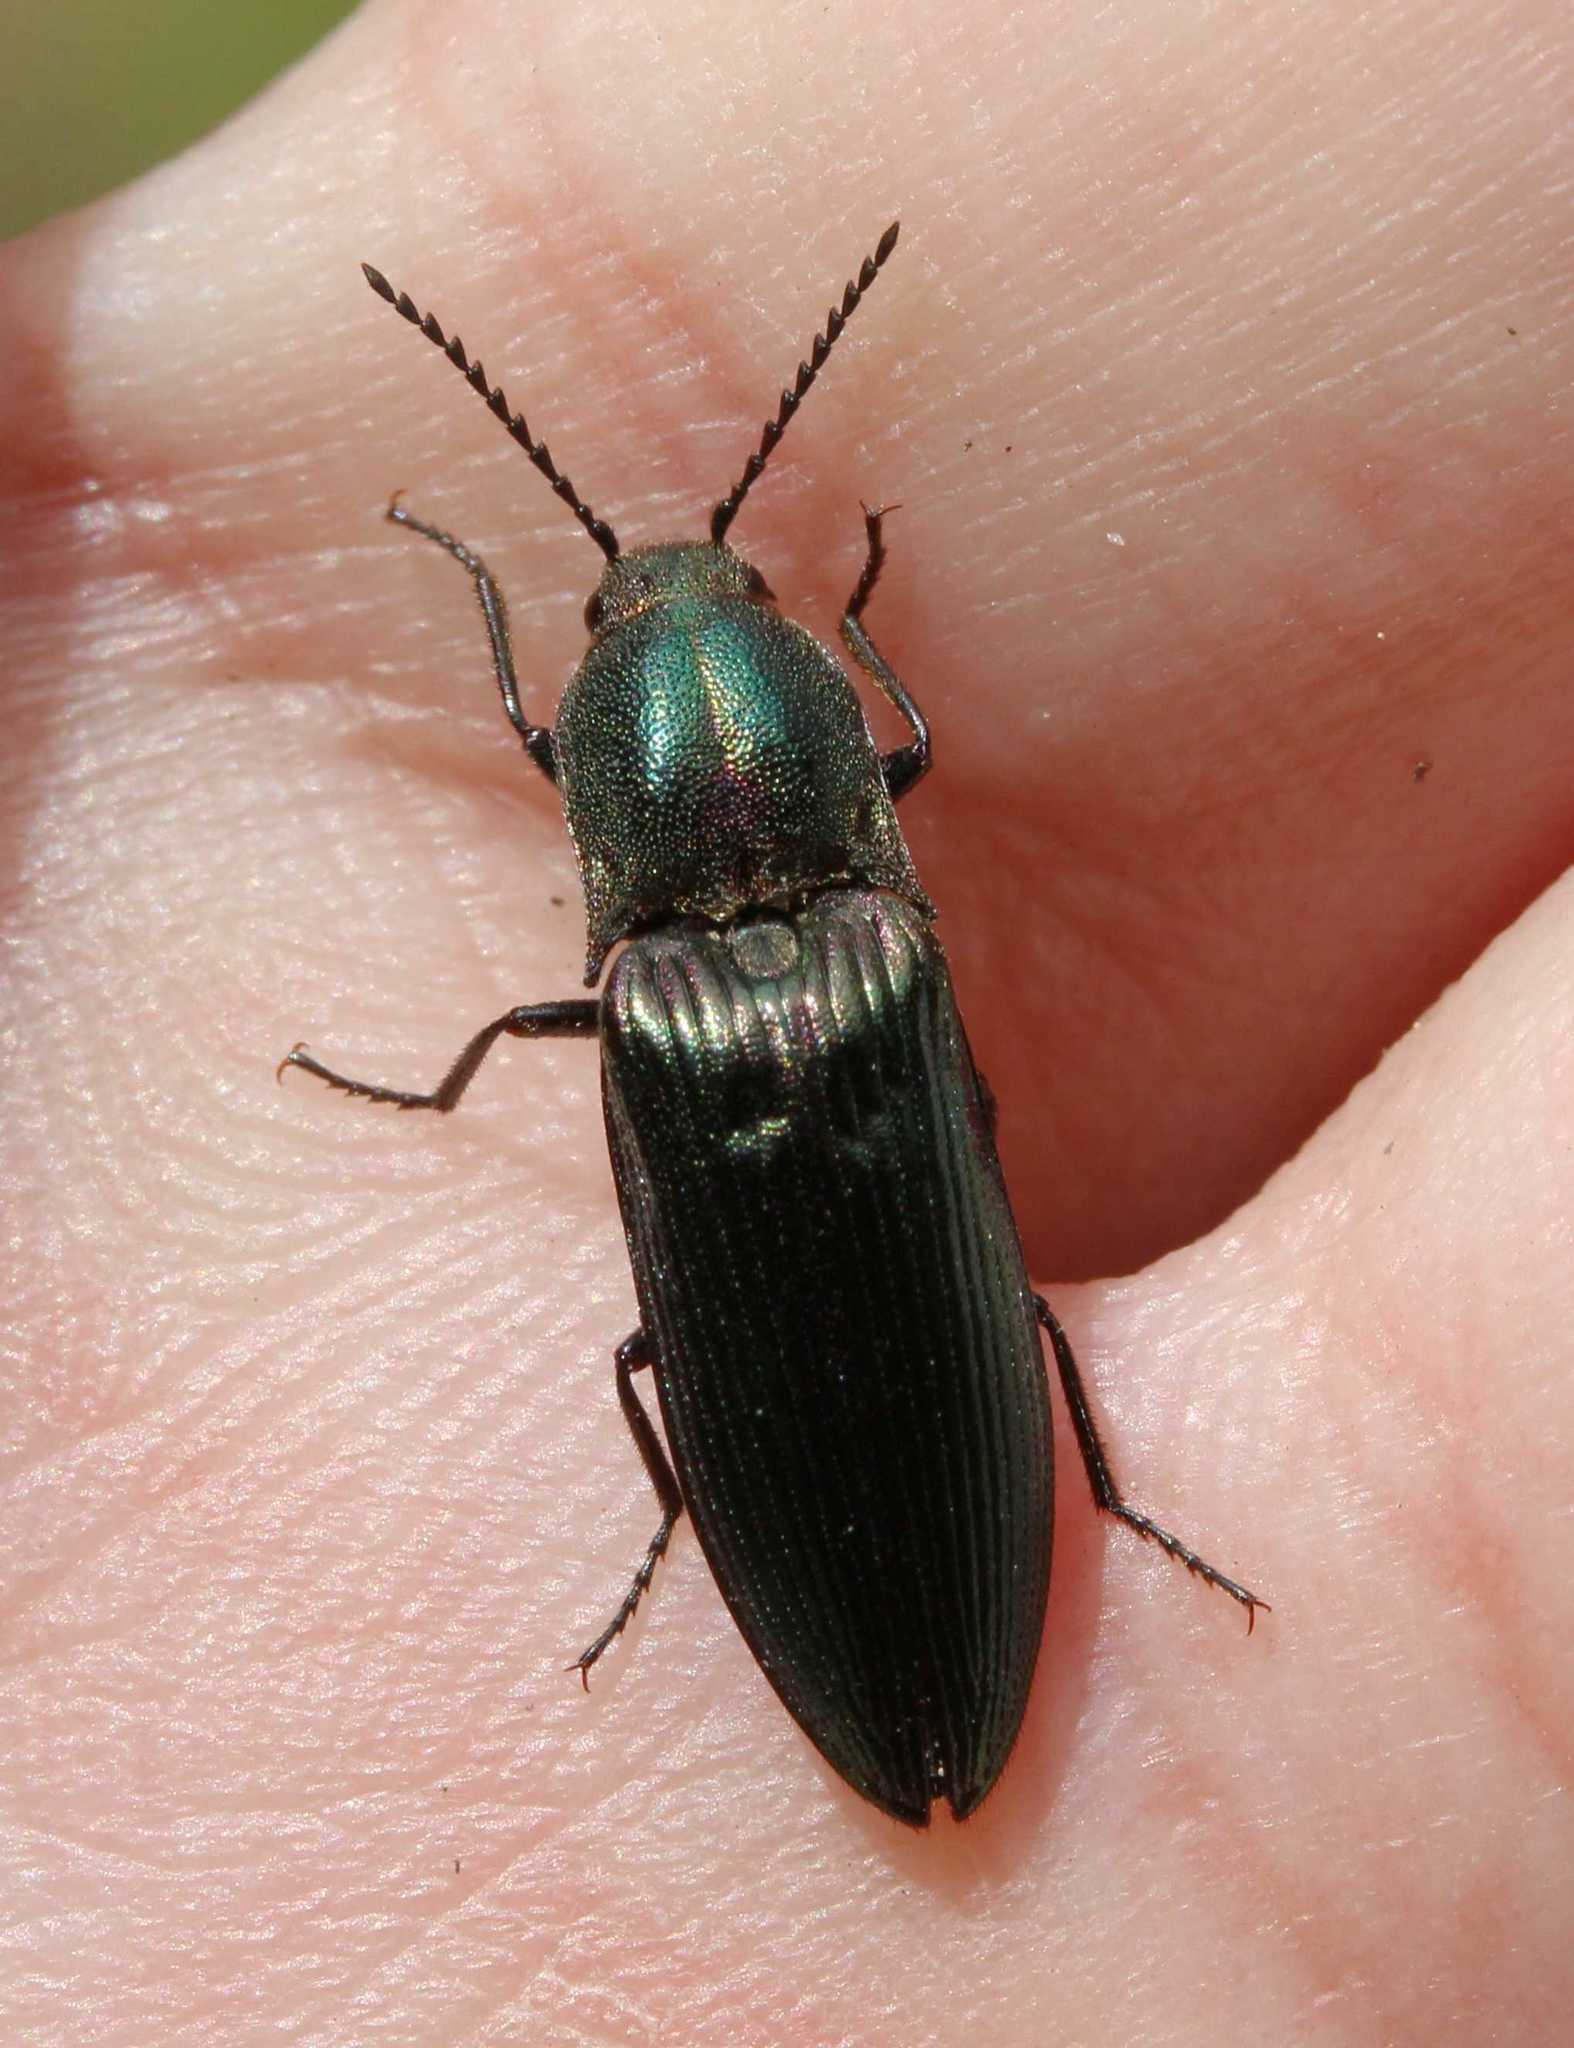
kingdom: Animalia
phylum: Arthropoda
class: Insecta
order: Coleoptera
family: Elateridae
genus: Ctenicera
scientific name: Ctenicera cuprea
